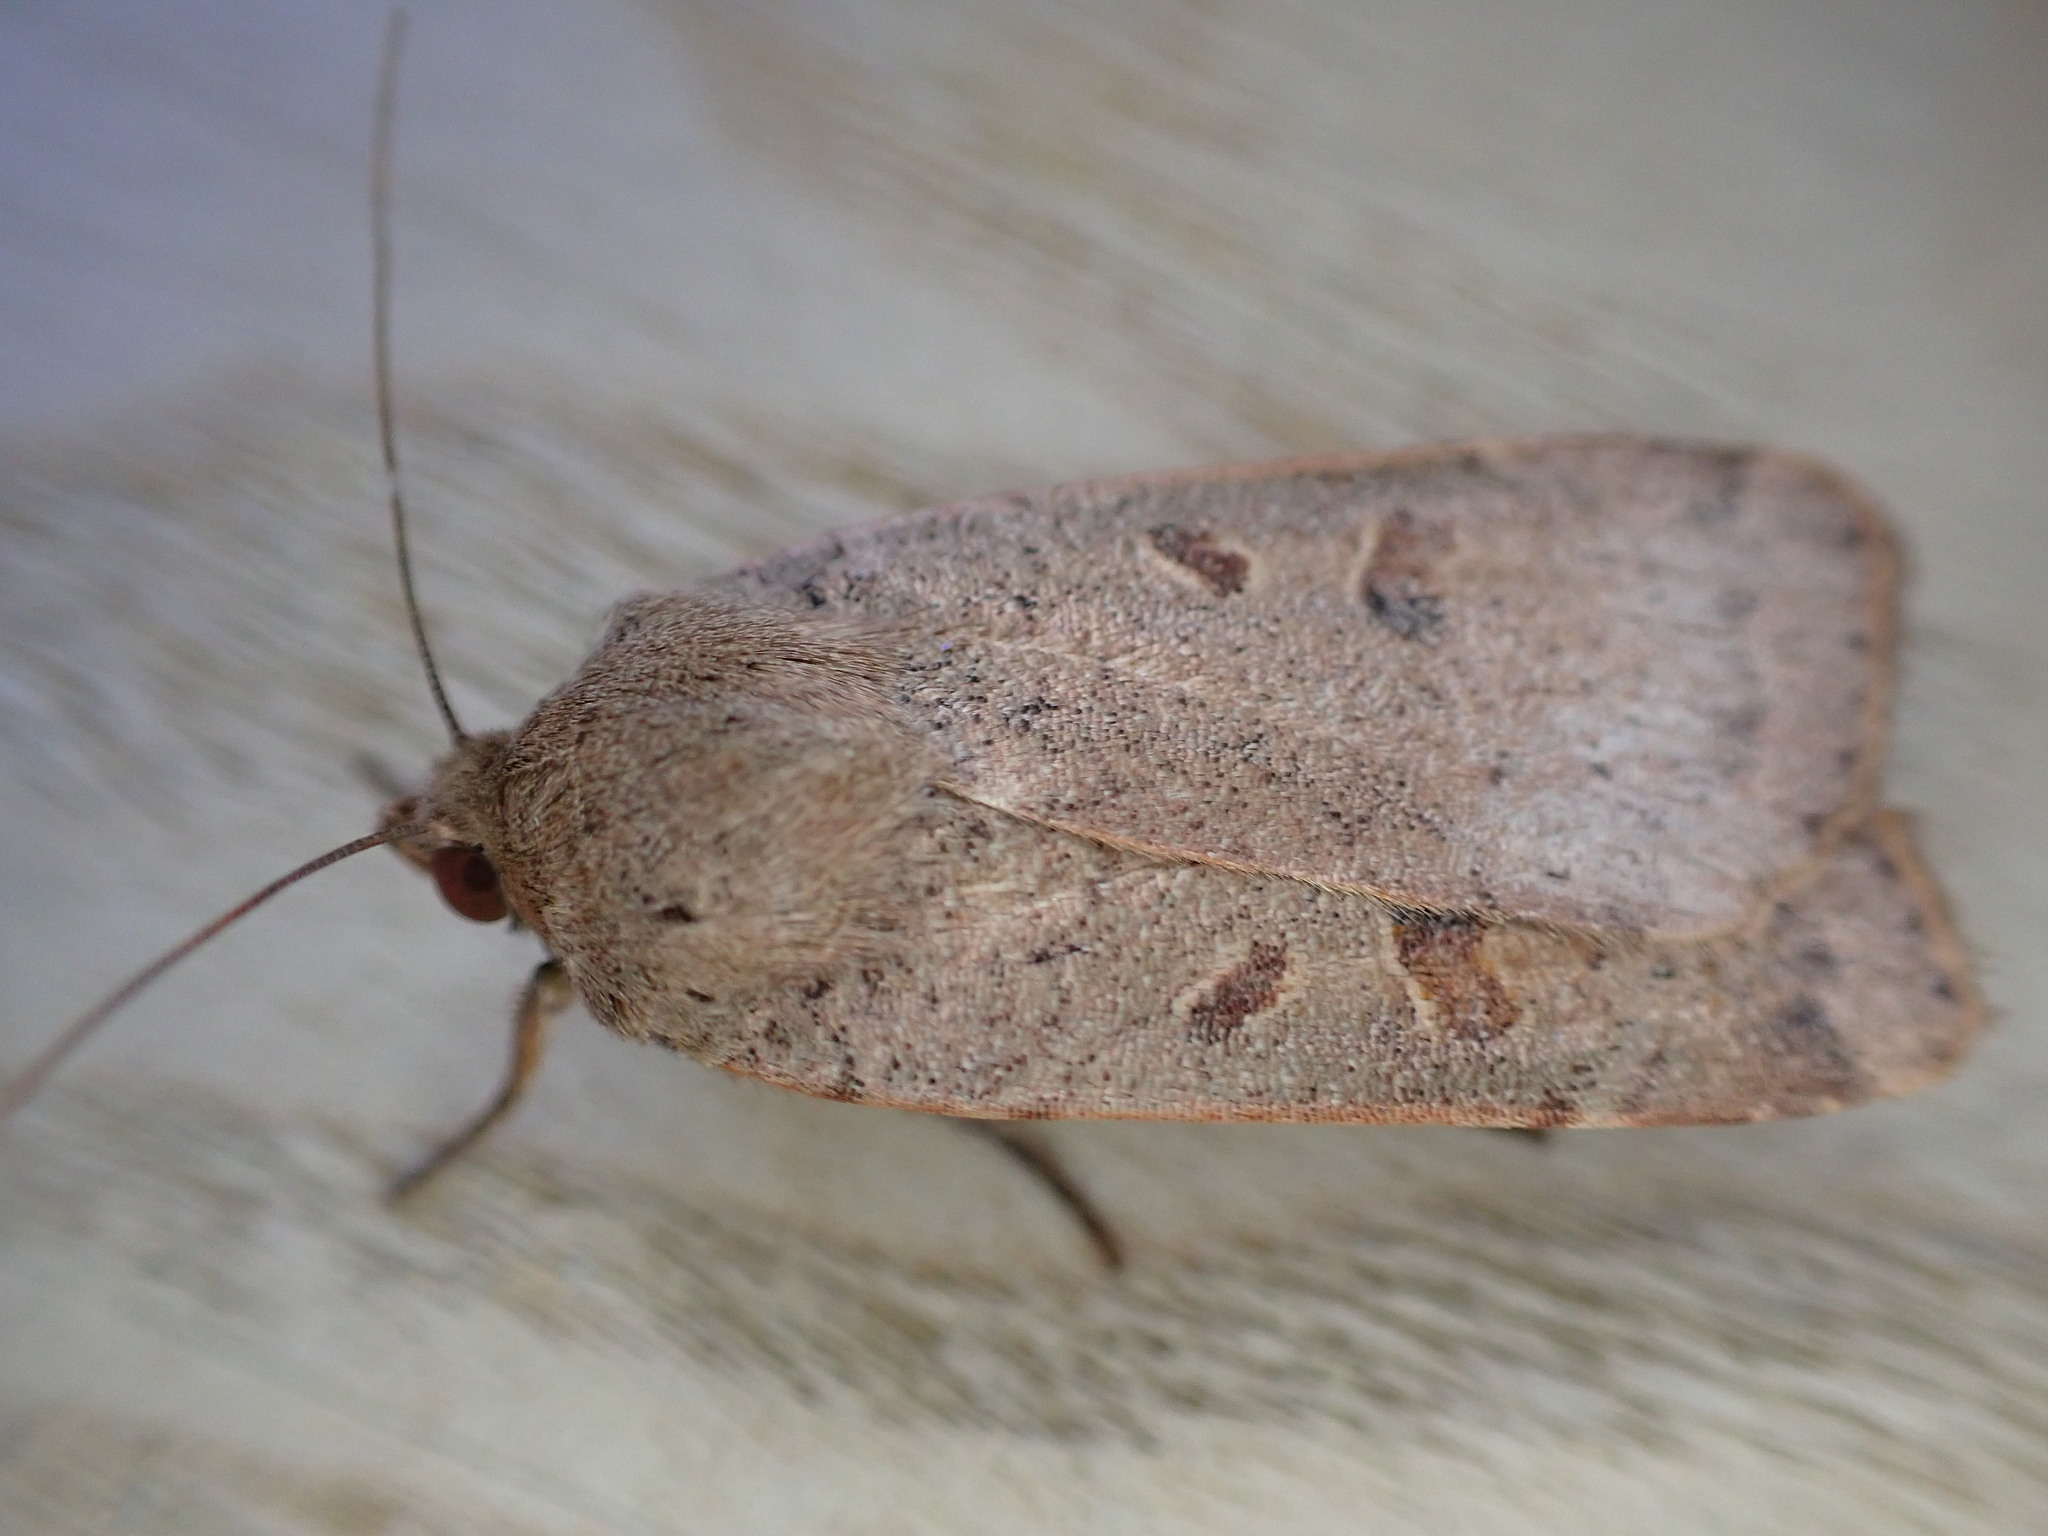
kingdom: Animalia
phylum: Arthropoda
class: Insecta
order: Lepidoptera
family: Noctuidae
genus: Noctua
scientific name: Noctua comes
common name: Lesser yellow underwing
